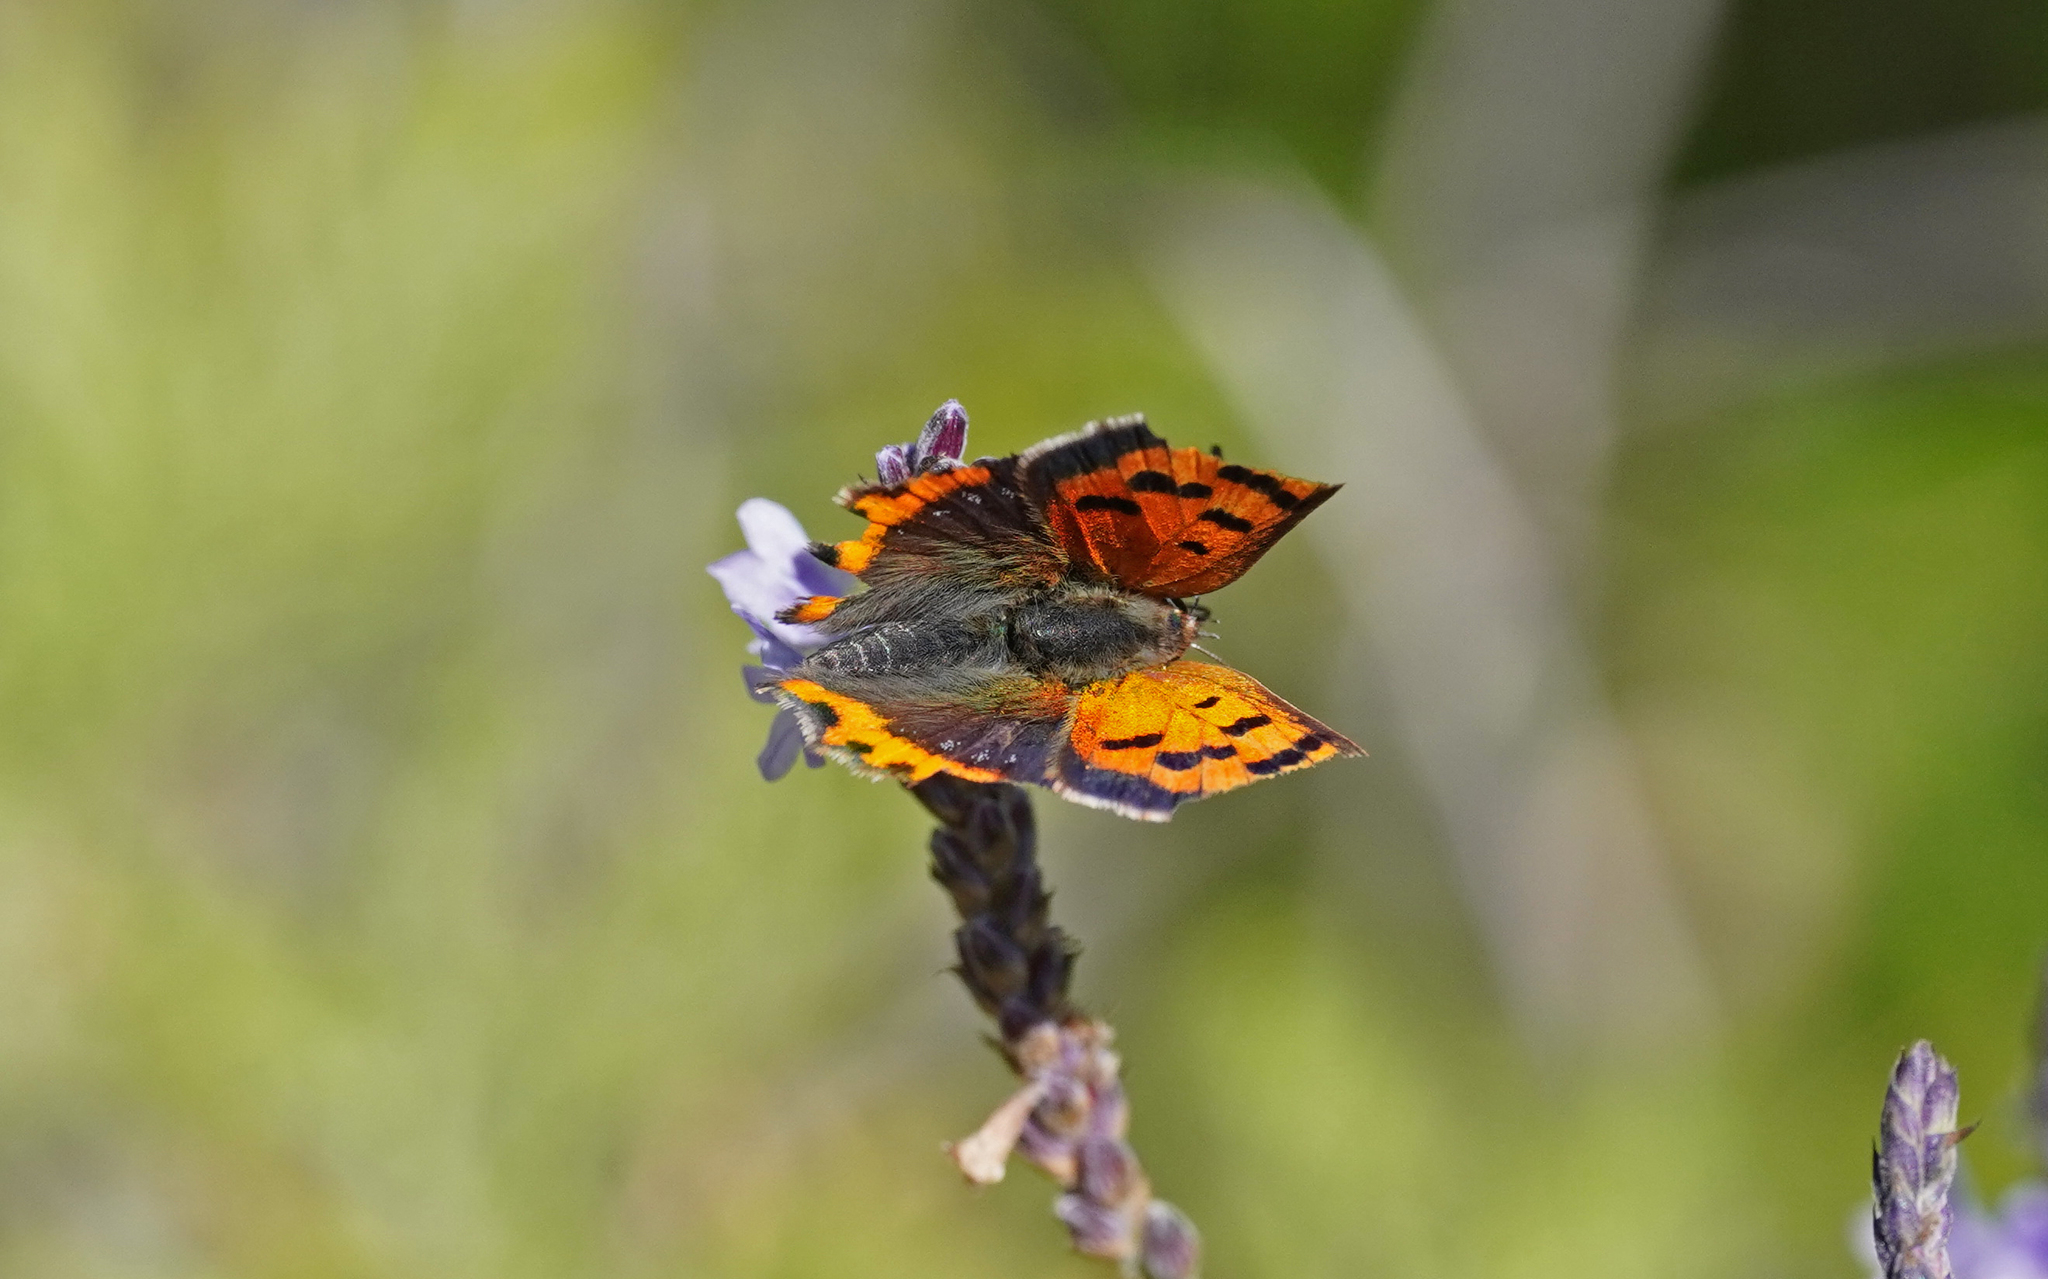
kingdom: Animalia
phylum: Arthropoda
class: Insecta
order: Lepidoptera
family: Lycaenidae
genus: Lycaena
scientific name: Lycaena phlaeas
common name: Small copper
